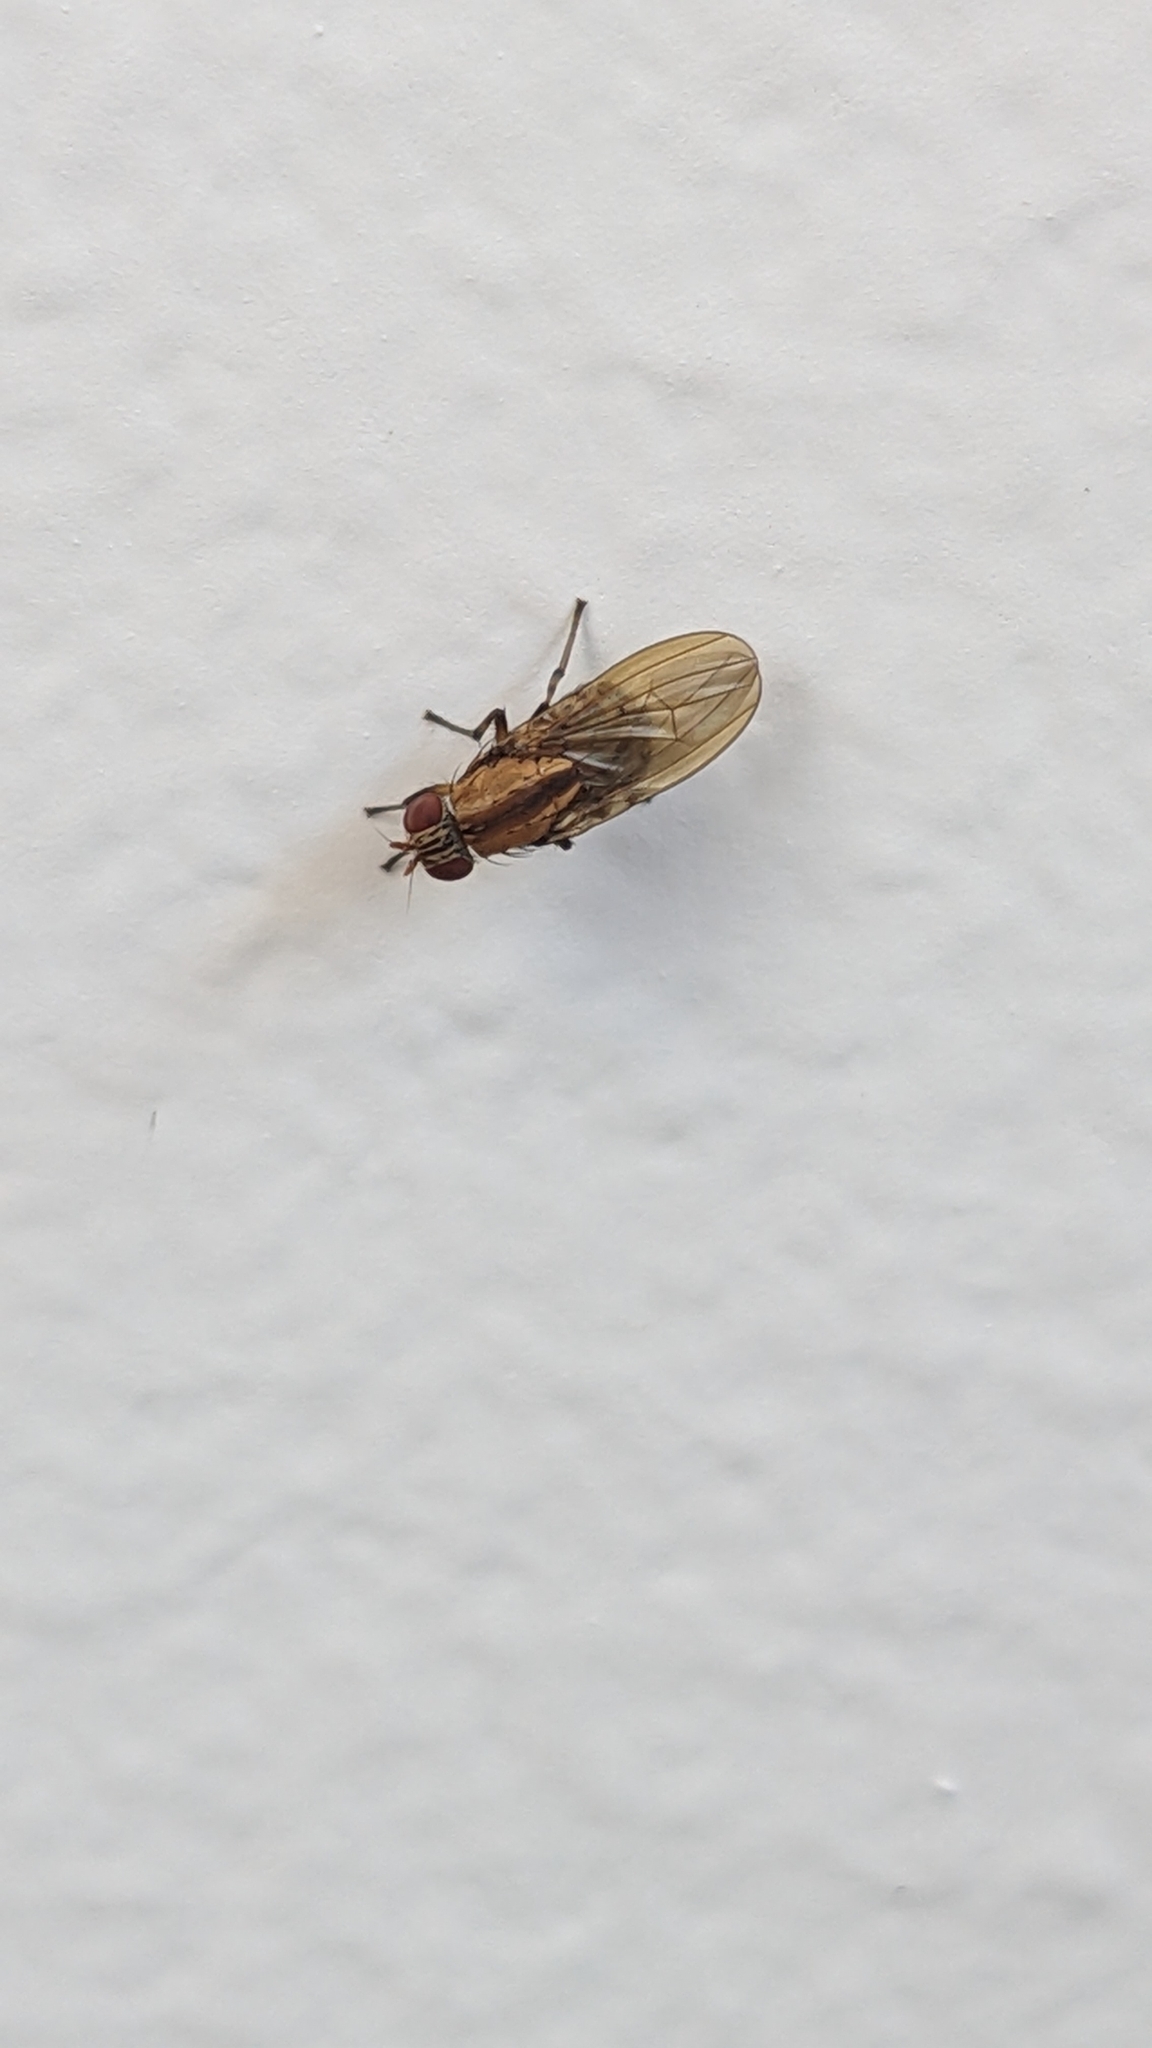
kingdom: Animalia
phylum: Arthropoda
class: Insecta
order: Diptera
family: Lauxaniidae
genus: Sapromyza
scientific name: Sapromyza neozelandica
